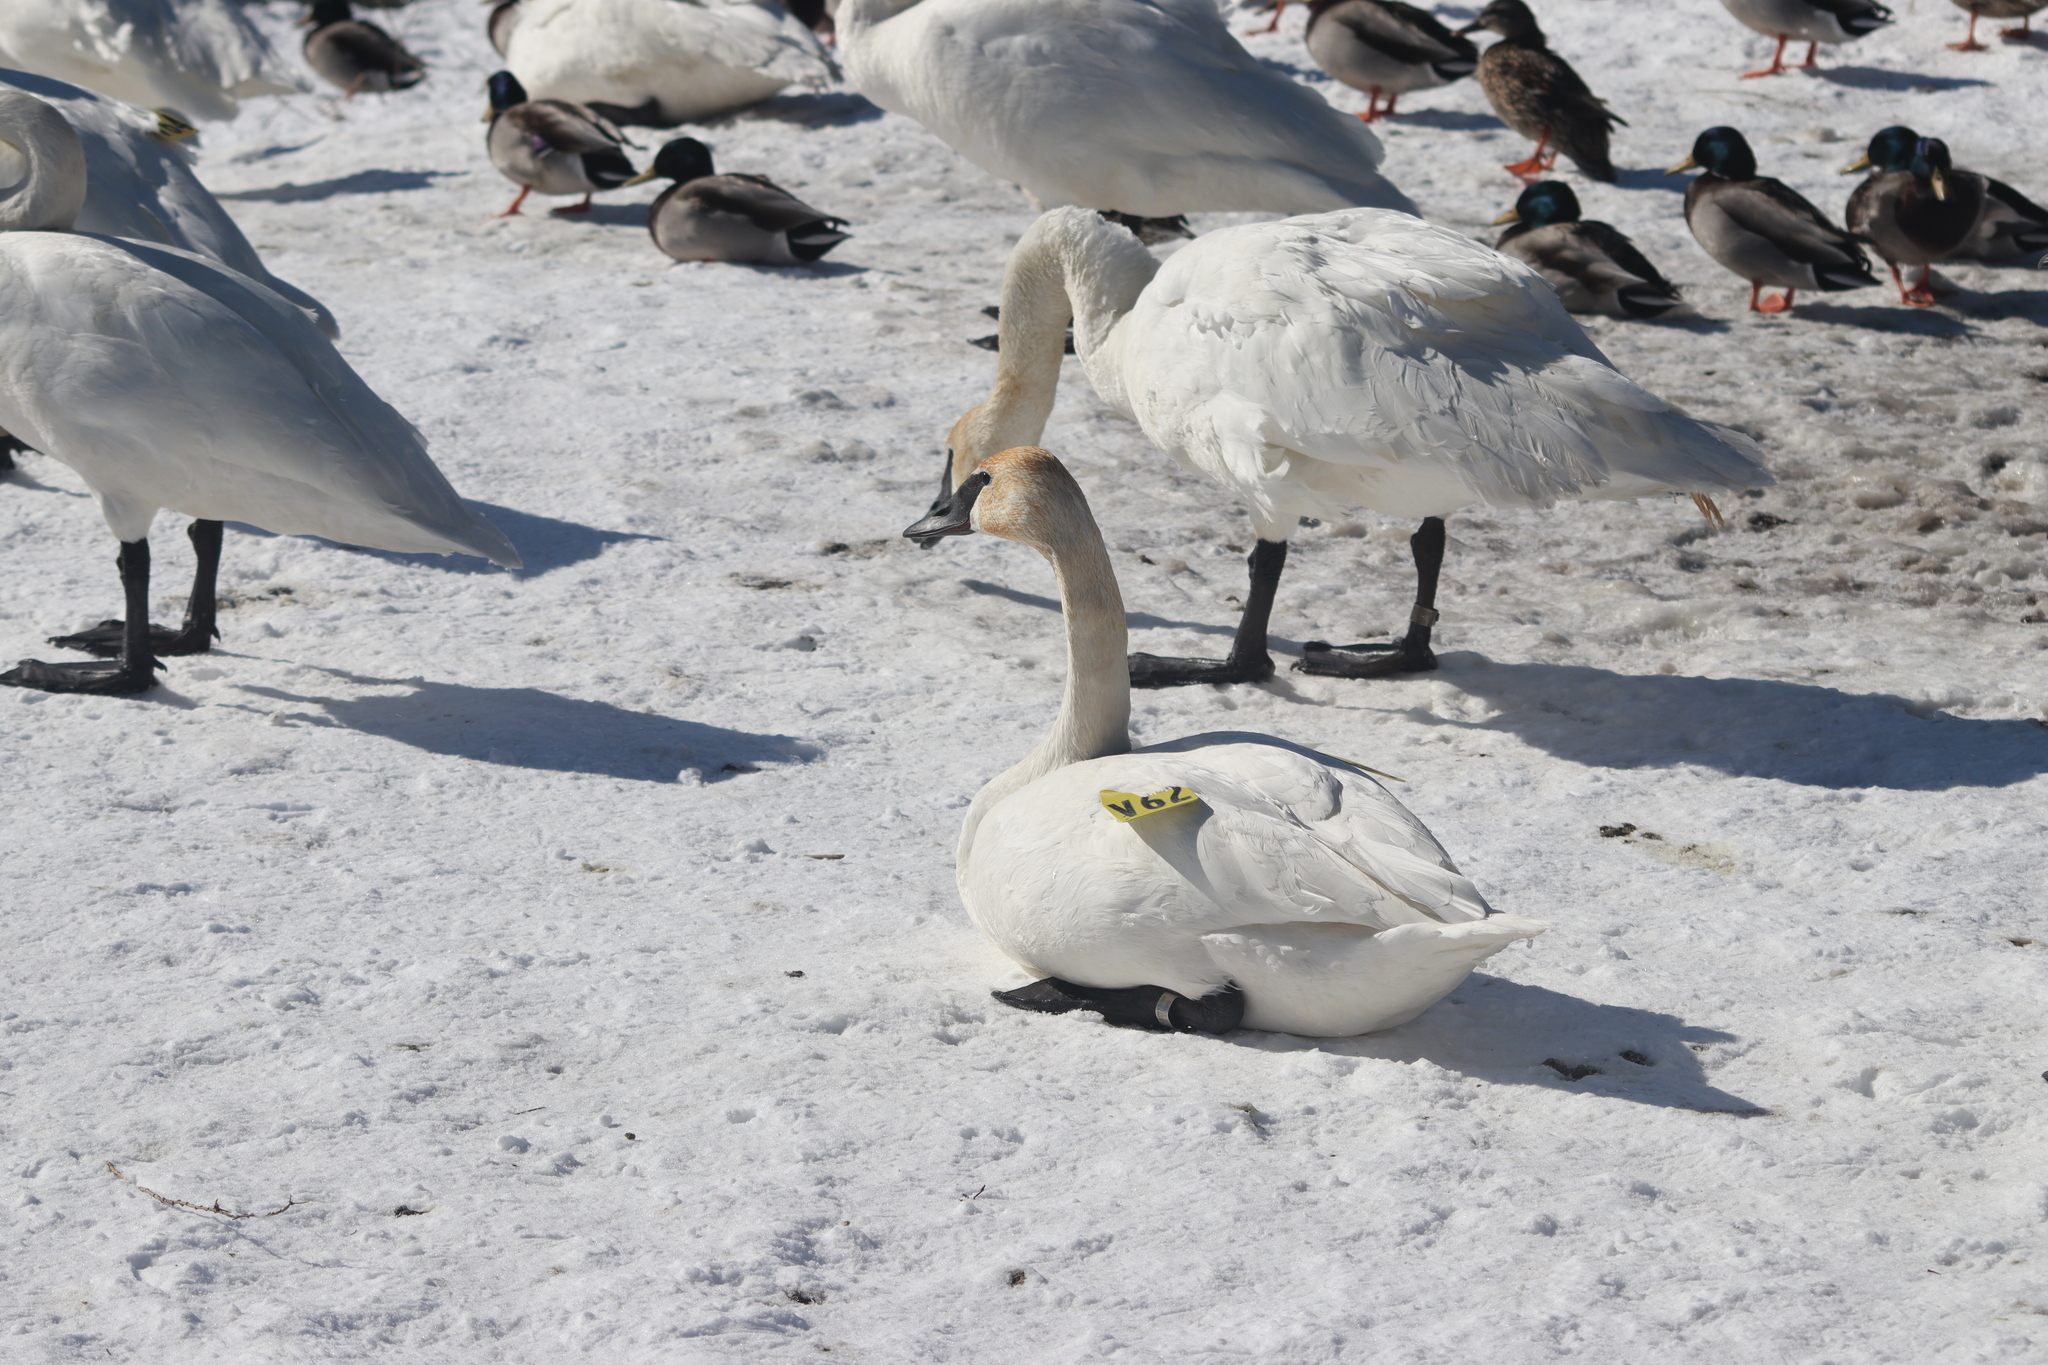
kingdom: Animalia
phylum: Chordata
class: Aves
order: Anseriformes
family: Anatidae
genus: Cygnus
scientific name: Cygnus buccinator
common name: Trumpeter swan
